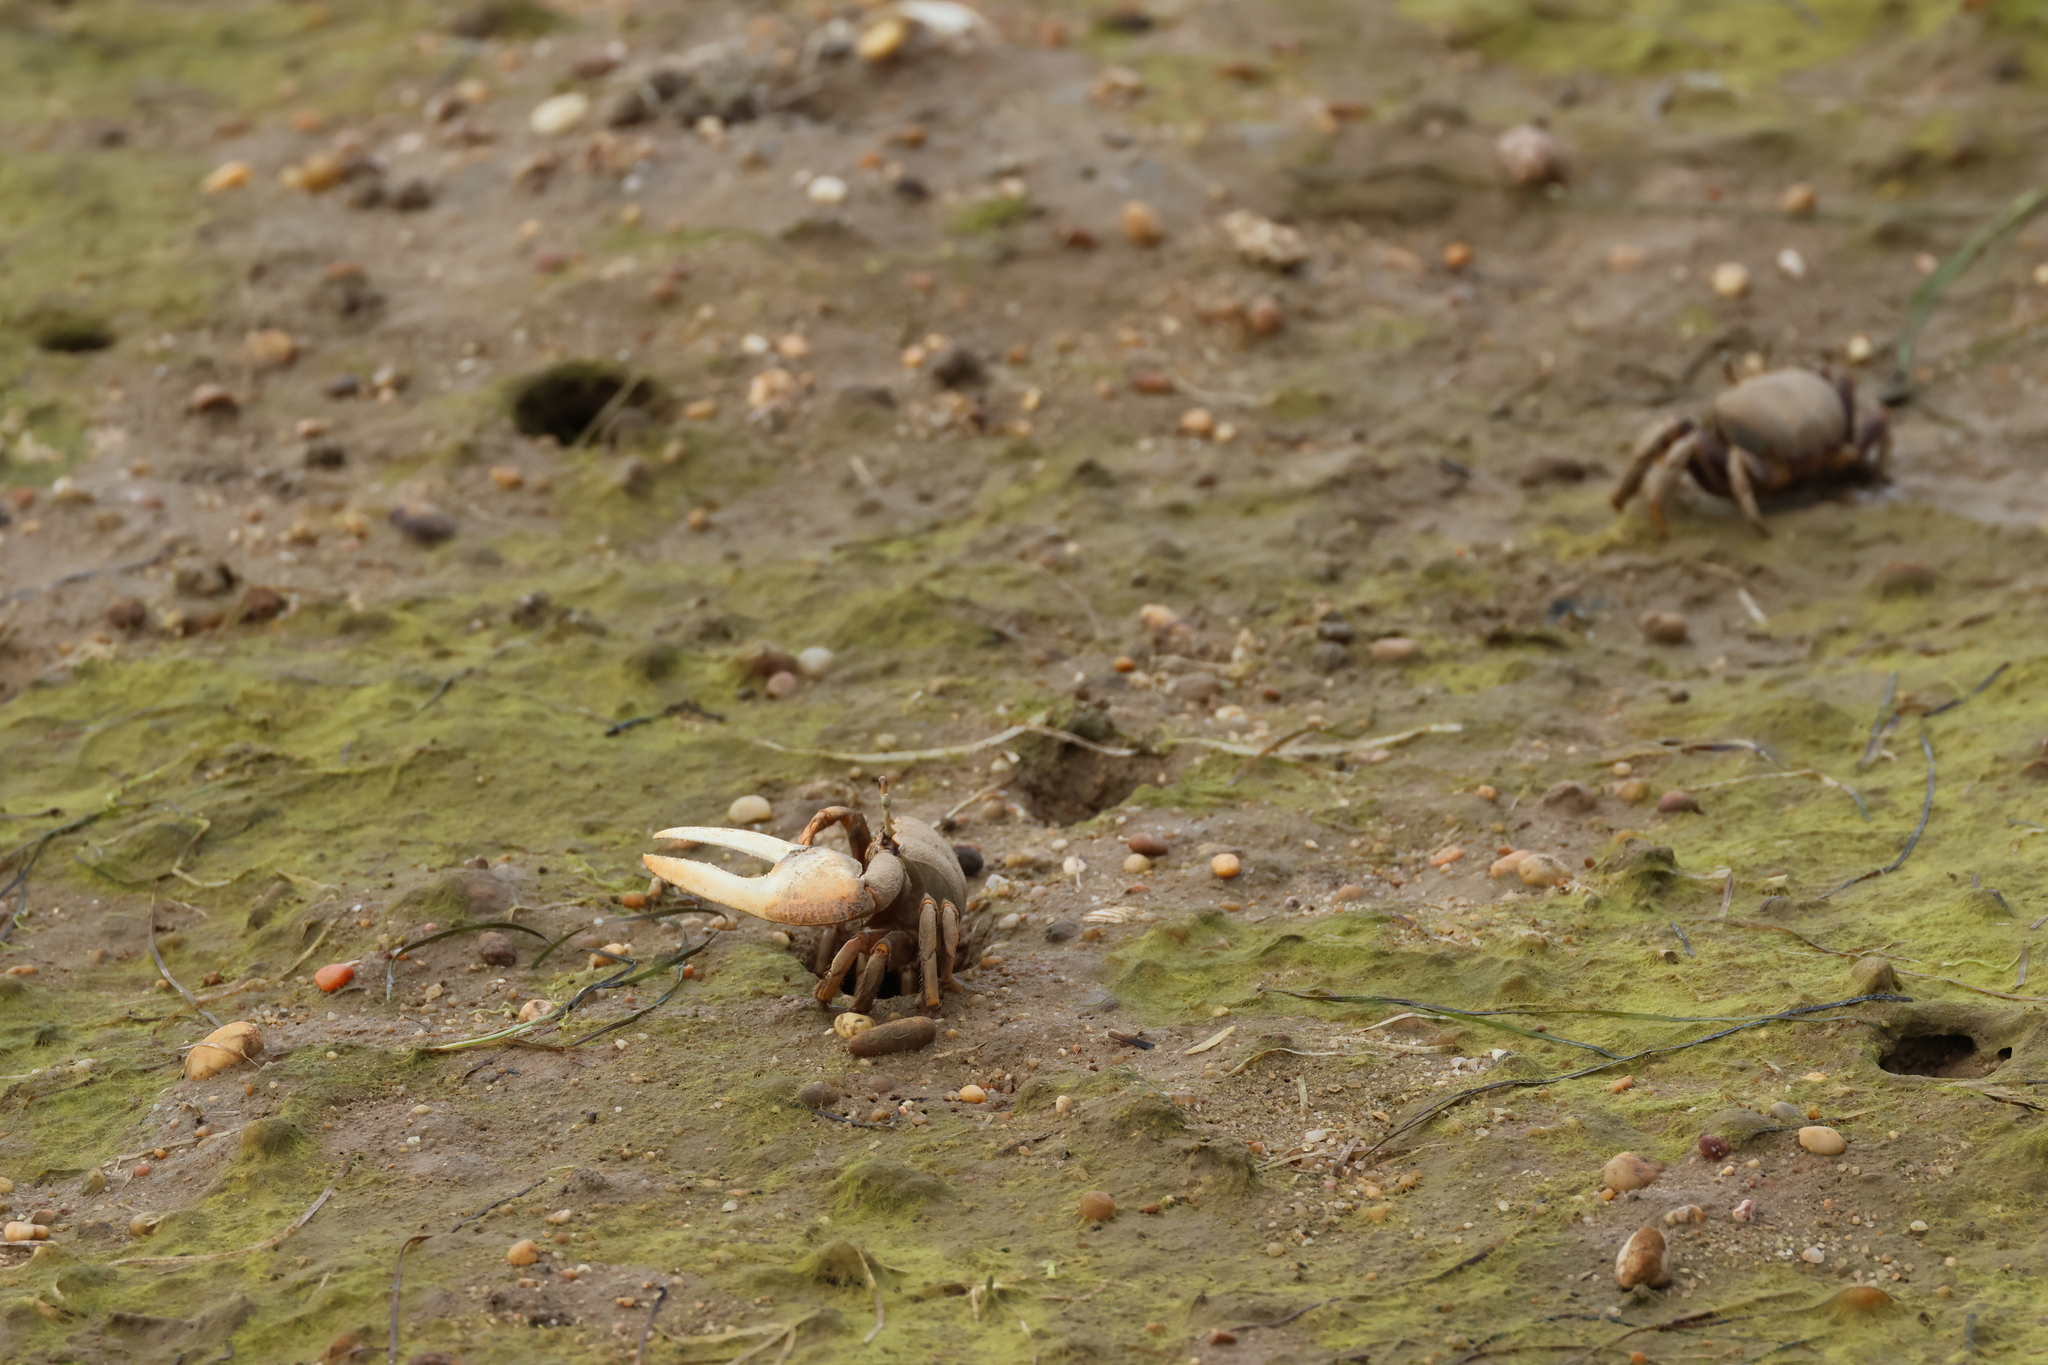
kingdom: Animalia
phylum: Arthropoda
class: Malacostraca
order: Decapoda
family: Ocypodidae
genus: Afruca
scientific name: Afruca tangeri
